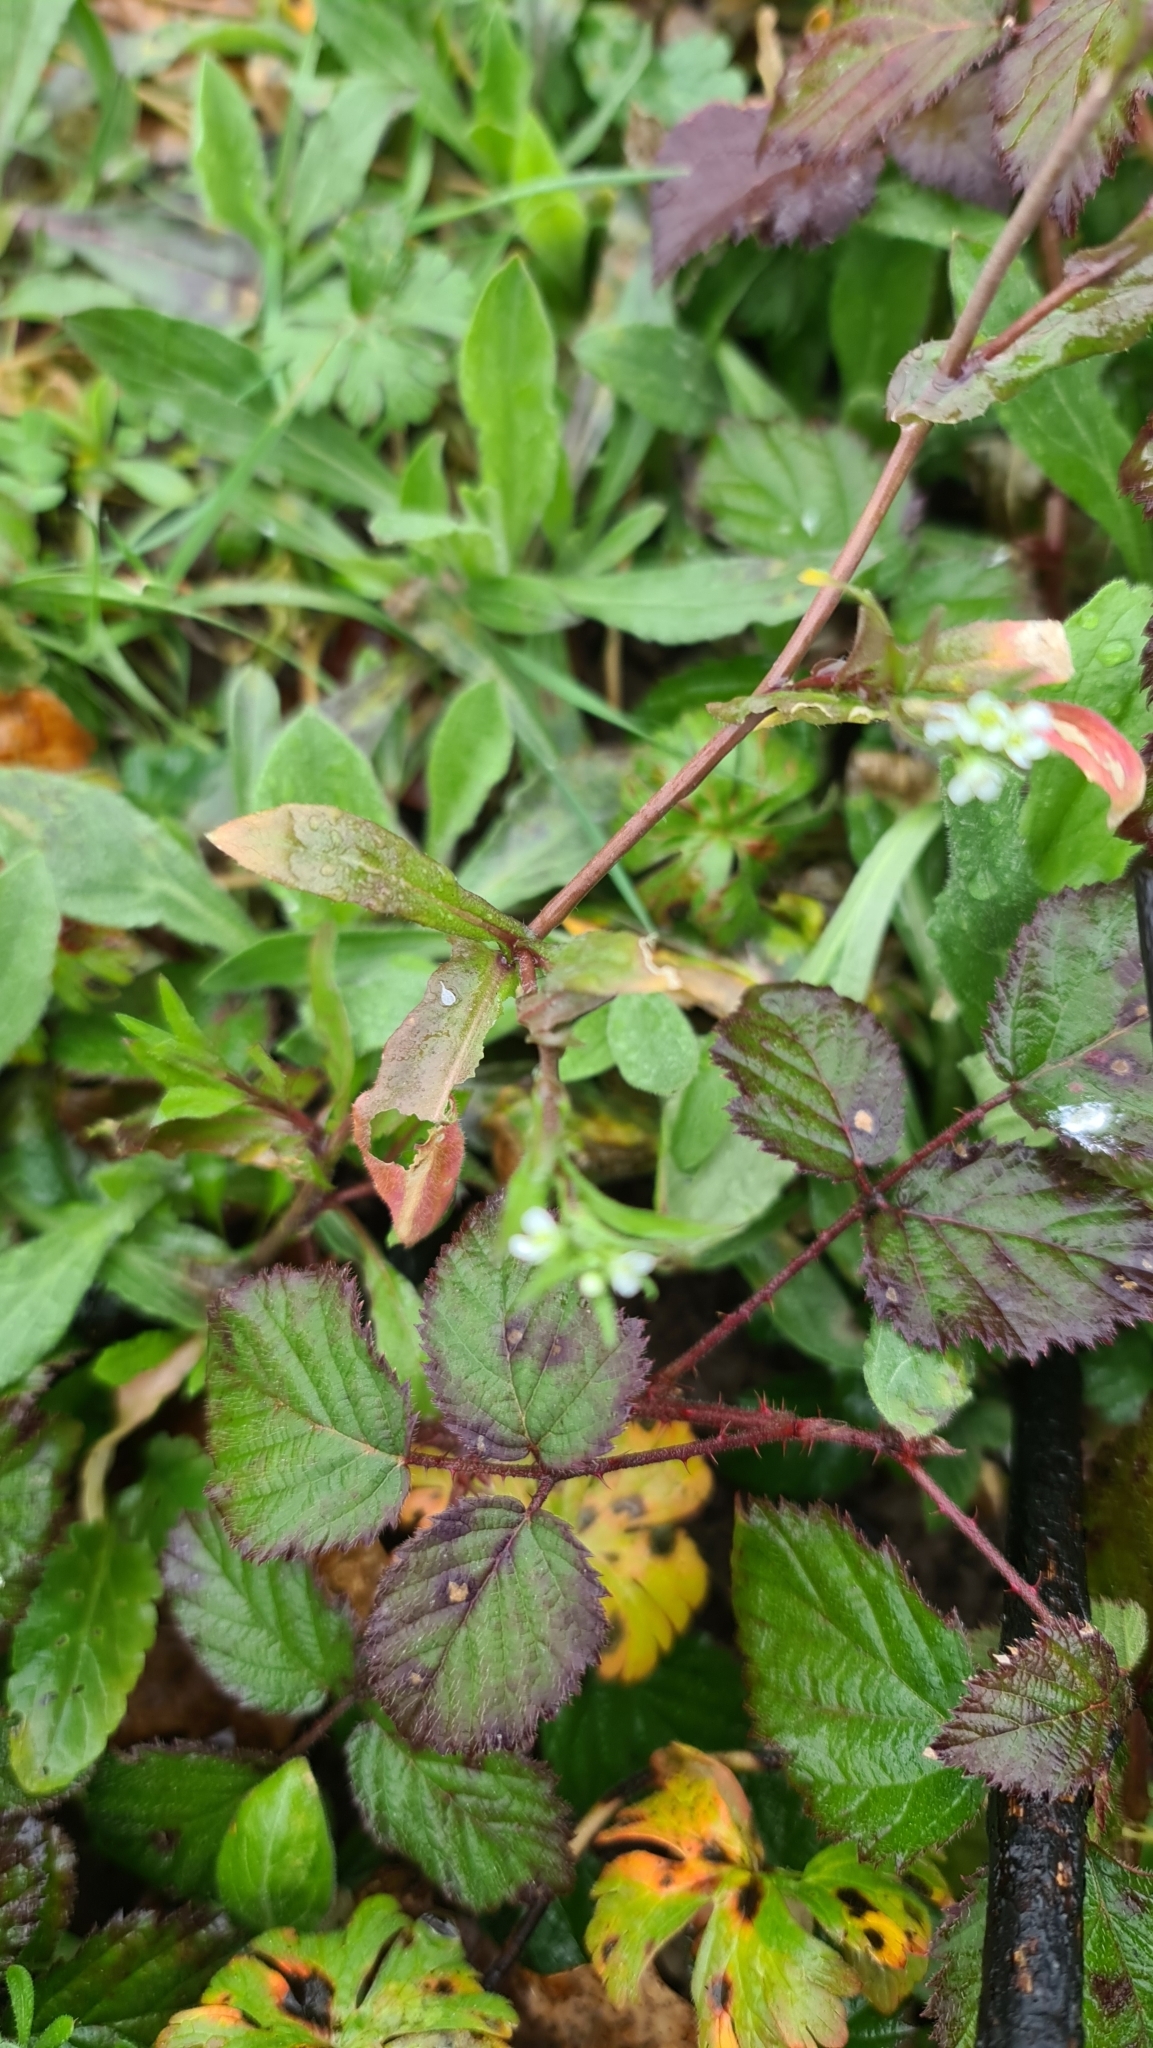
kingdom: Plantae
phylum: Tracheophyta
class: Magnoliopsida
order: Brassicales
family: Brassicaceae
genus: Capsella
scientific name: Capsella bursa-pastoris
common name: Shepherd's purse
